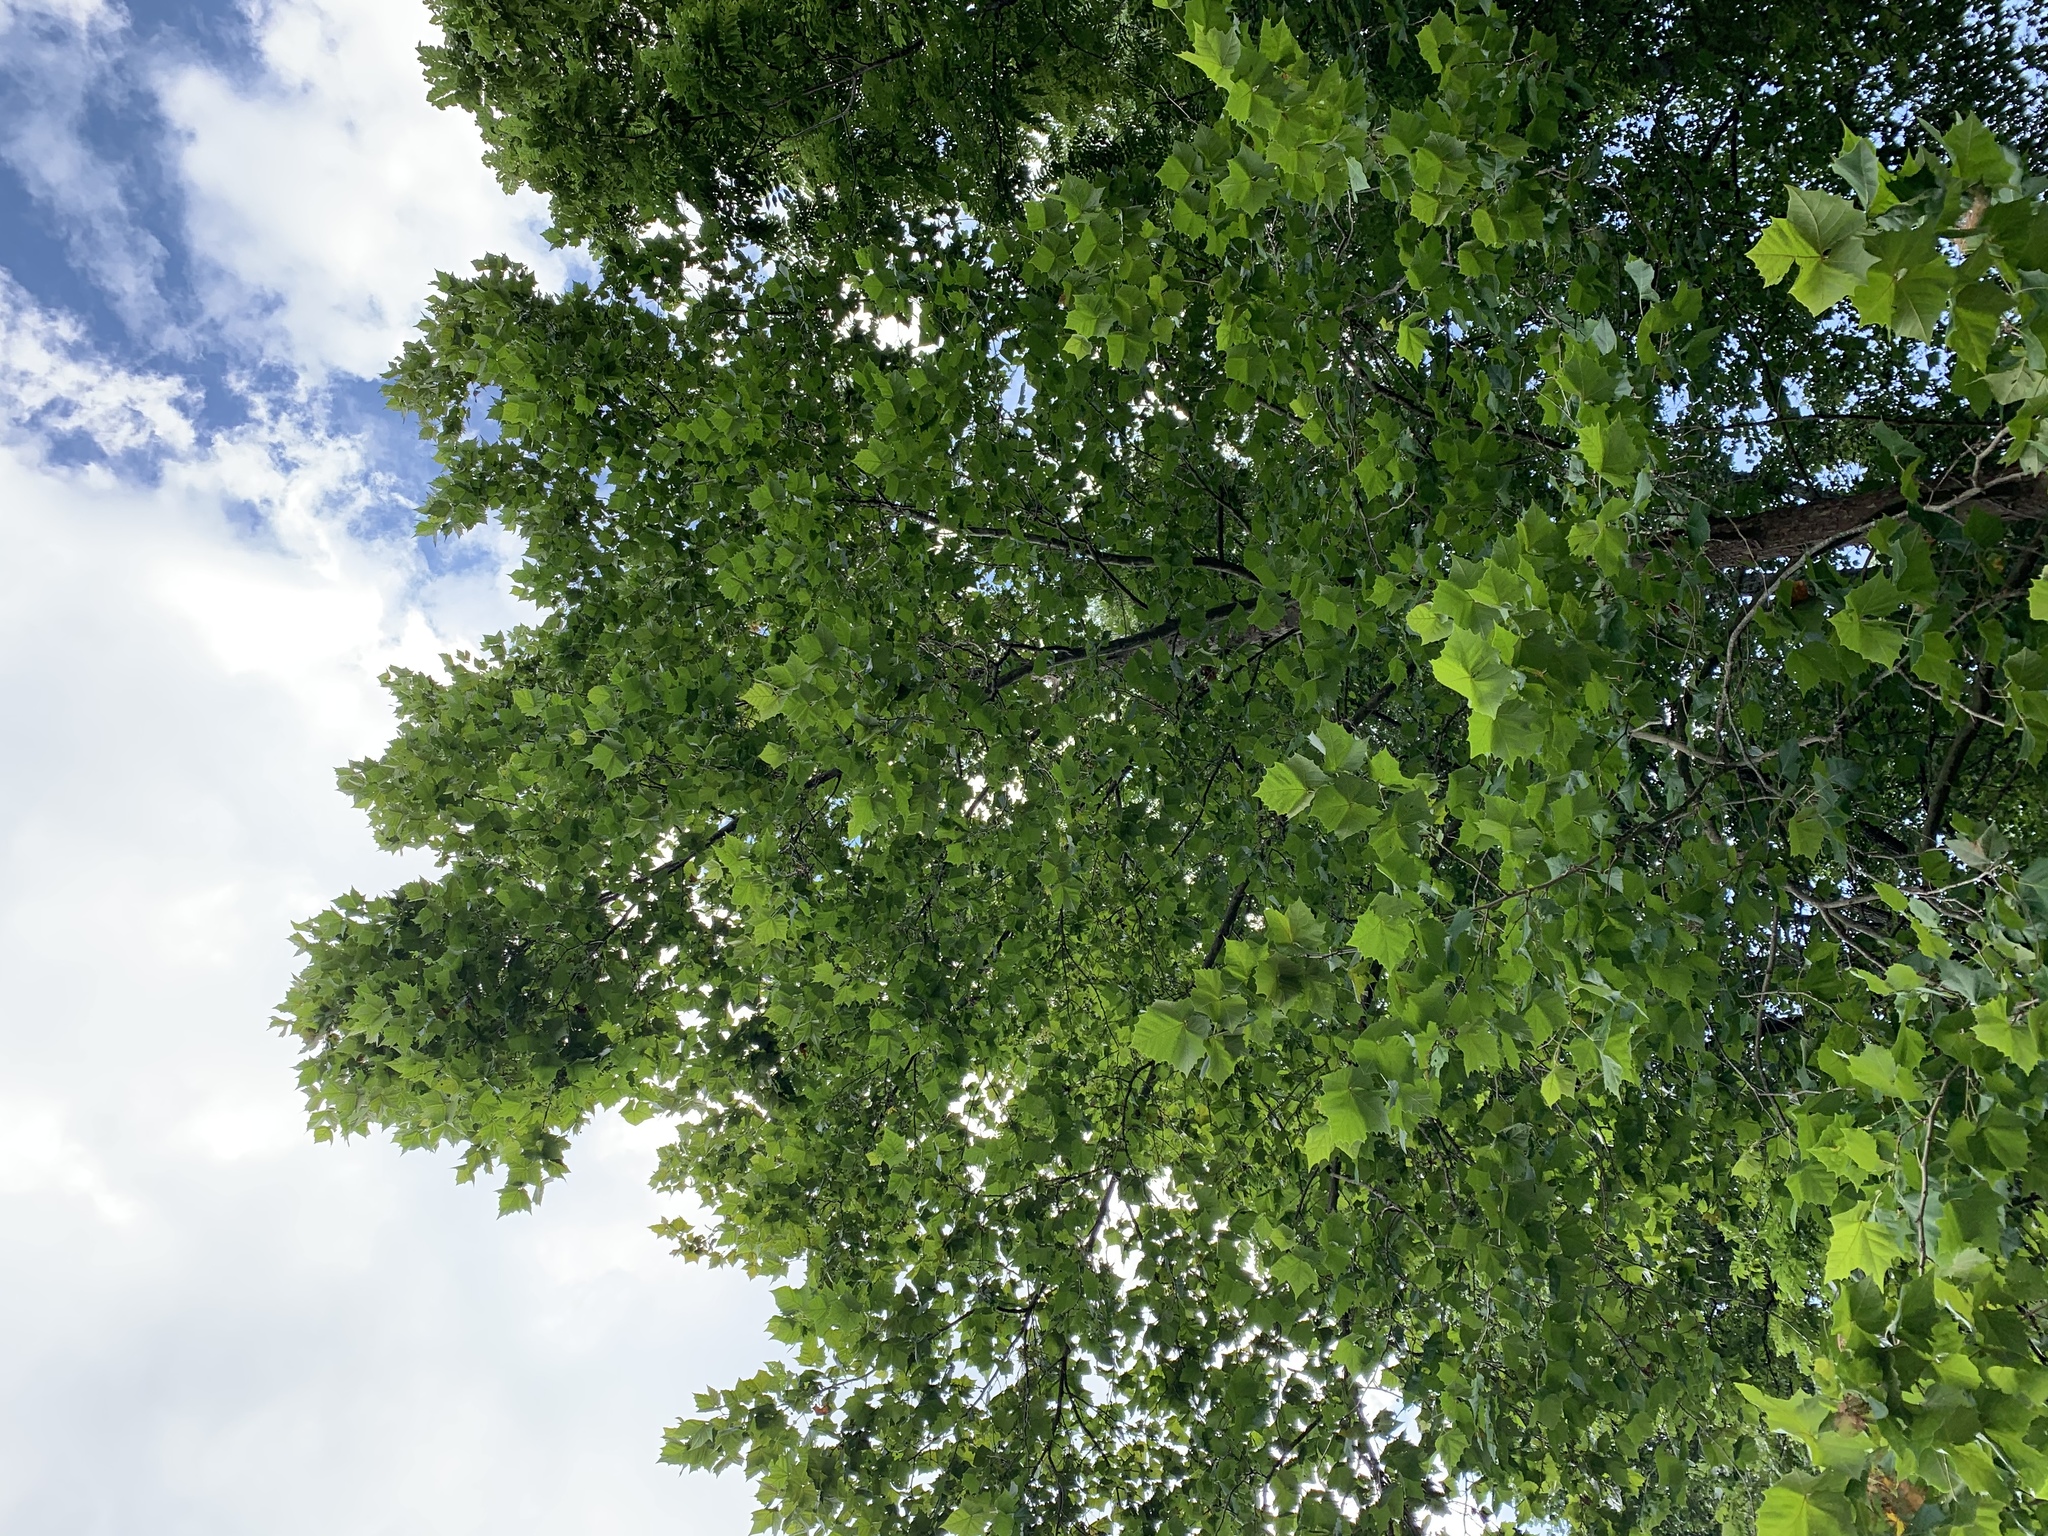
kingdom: Plantae
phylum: Tracheophyta
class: Magnoliopsida
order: Proteales
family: Platanaceae
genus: Platanus
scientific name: Platanus occidentalis
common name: American sycamore
